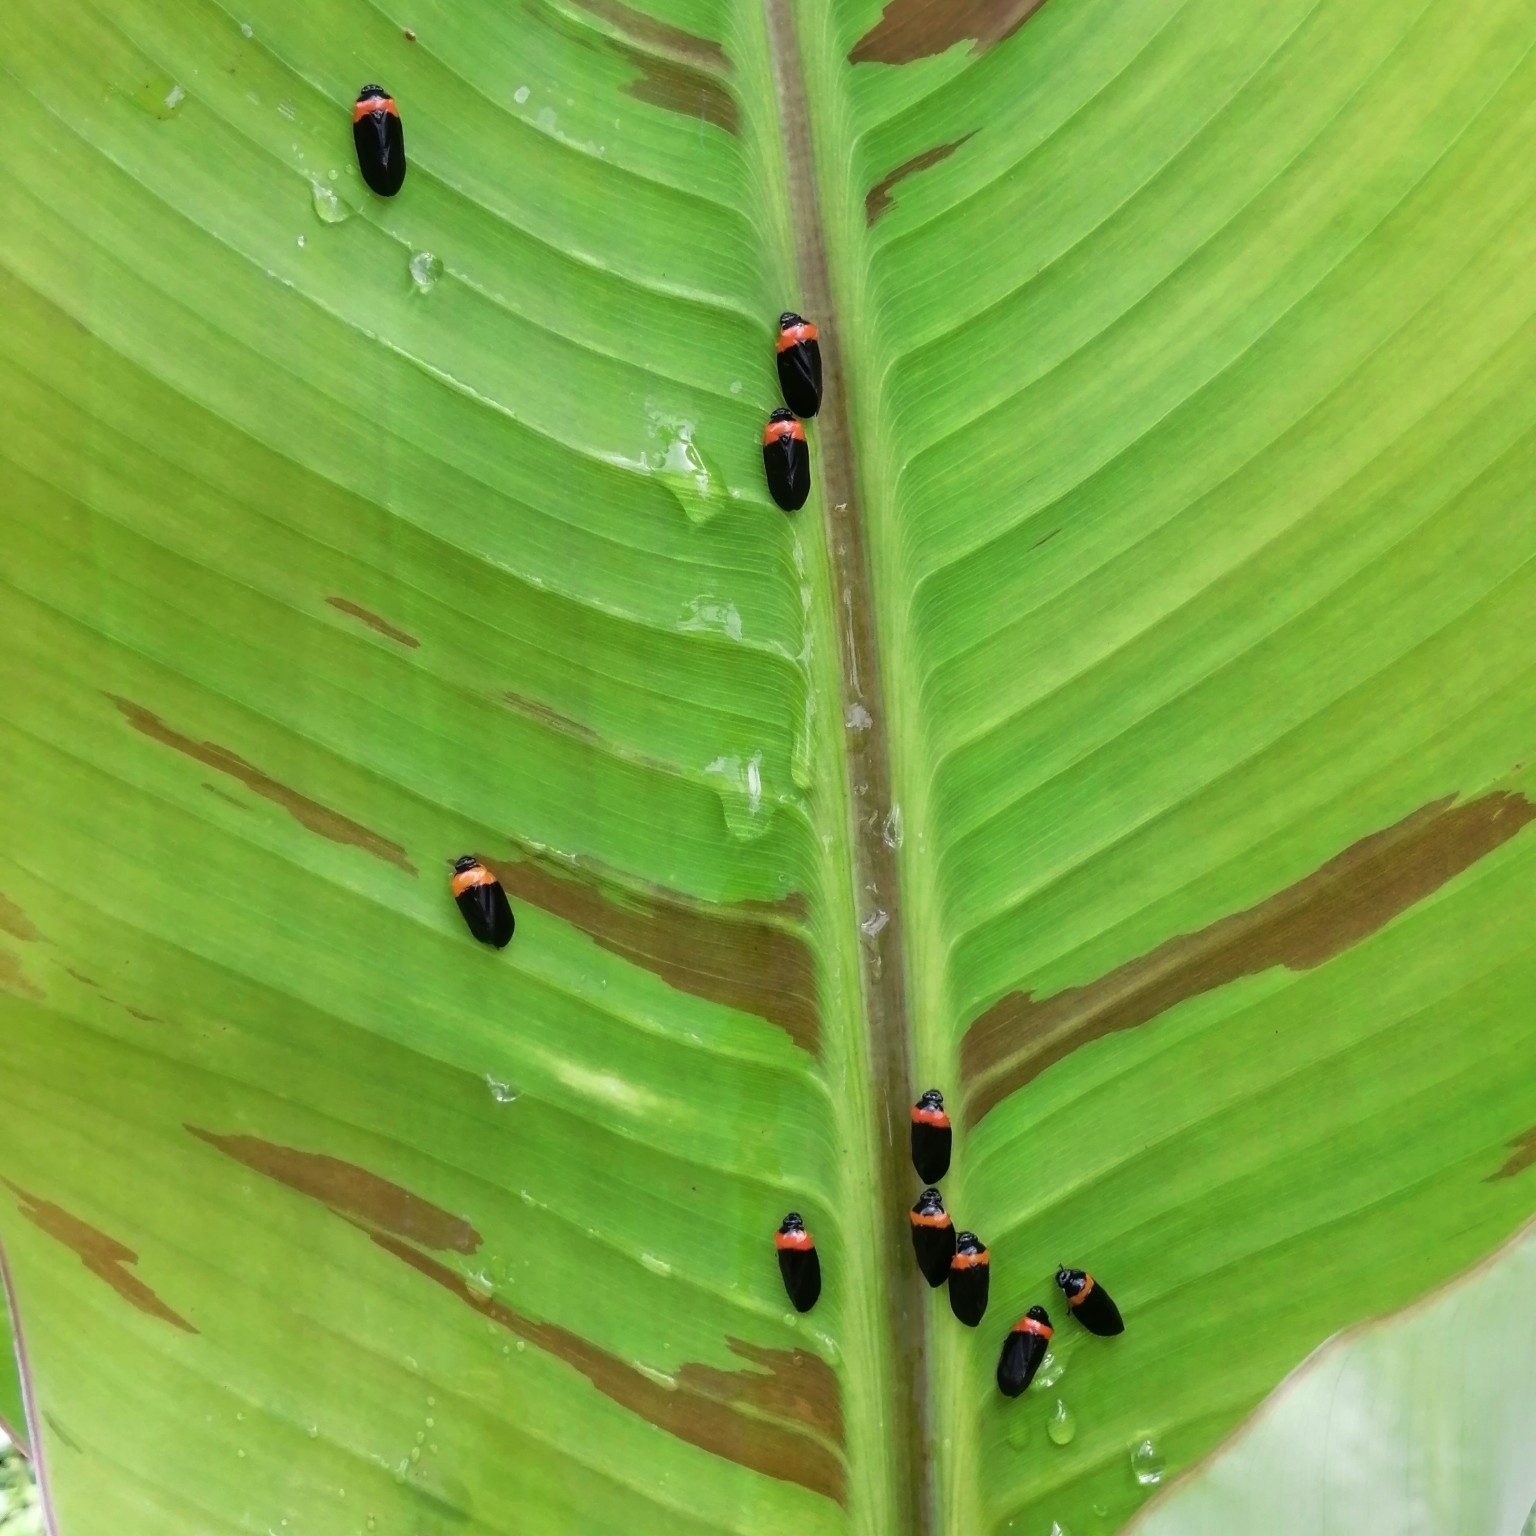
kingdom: Animalia
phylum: Arthropoda
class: Insecta
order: Hemiptera
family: Cercopidae
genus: Phymatostetha
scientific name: Phymatostetha deschampsi
